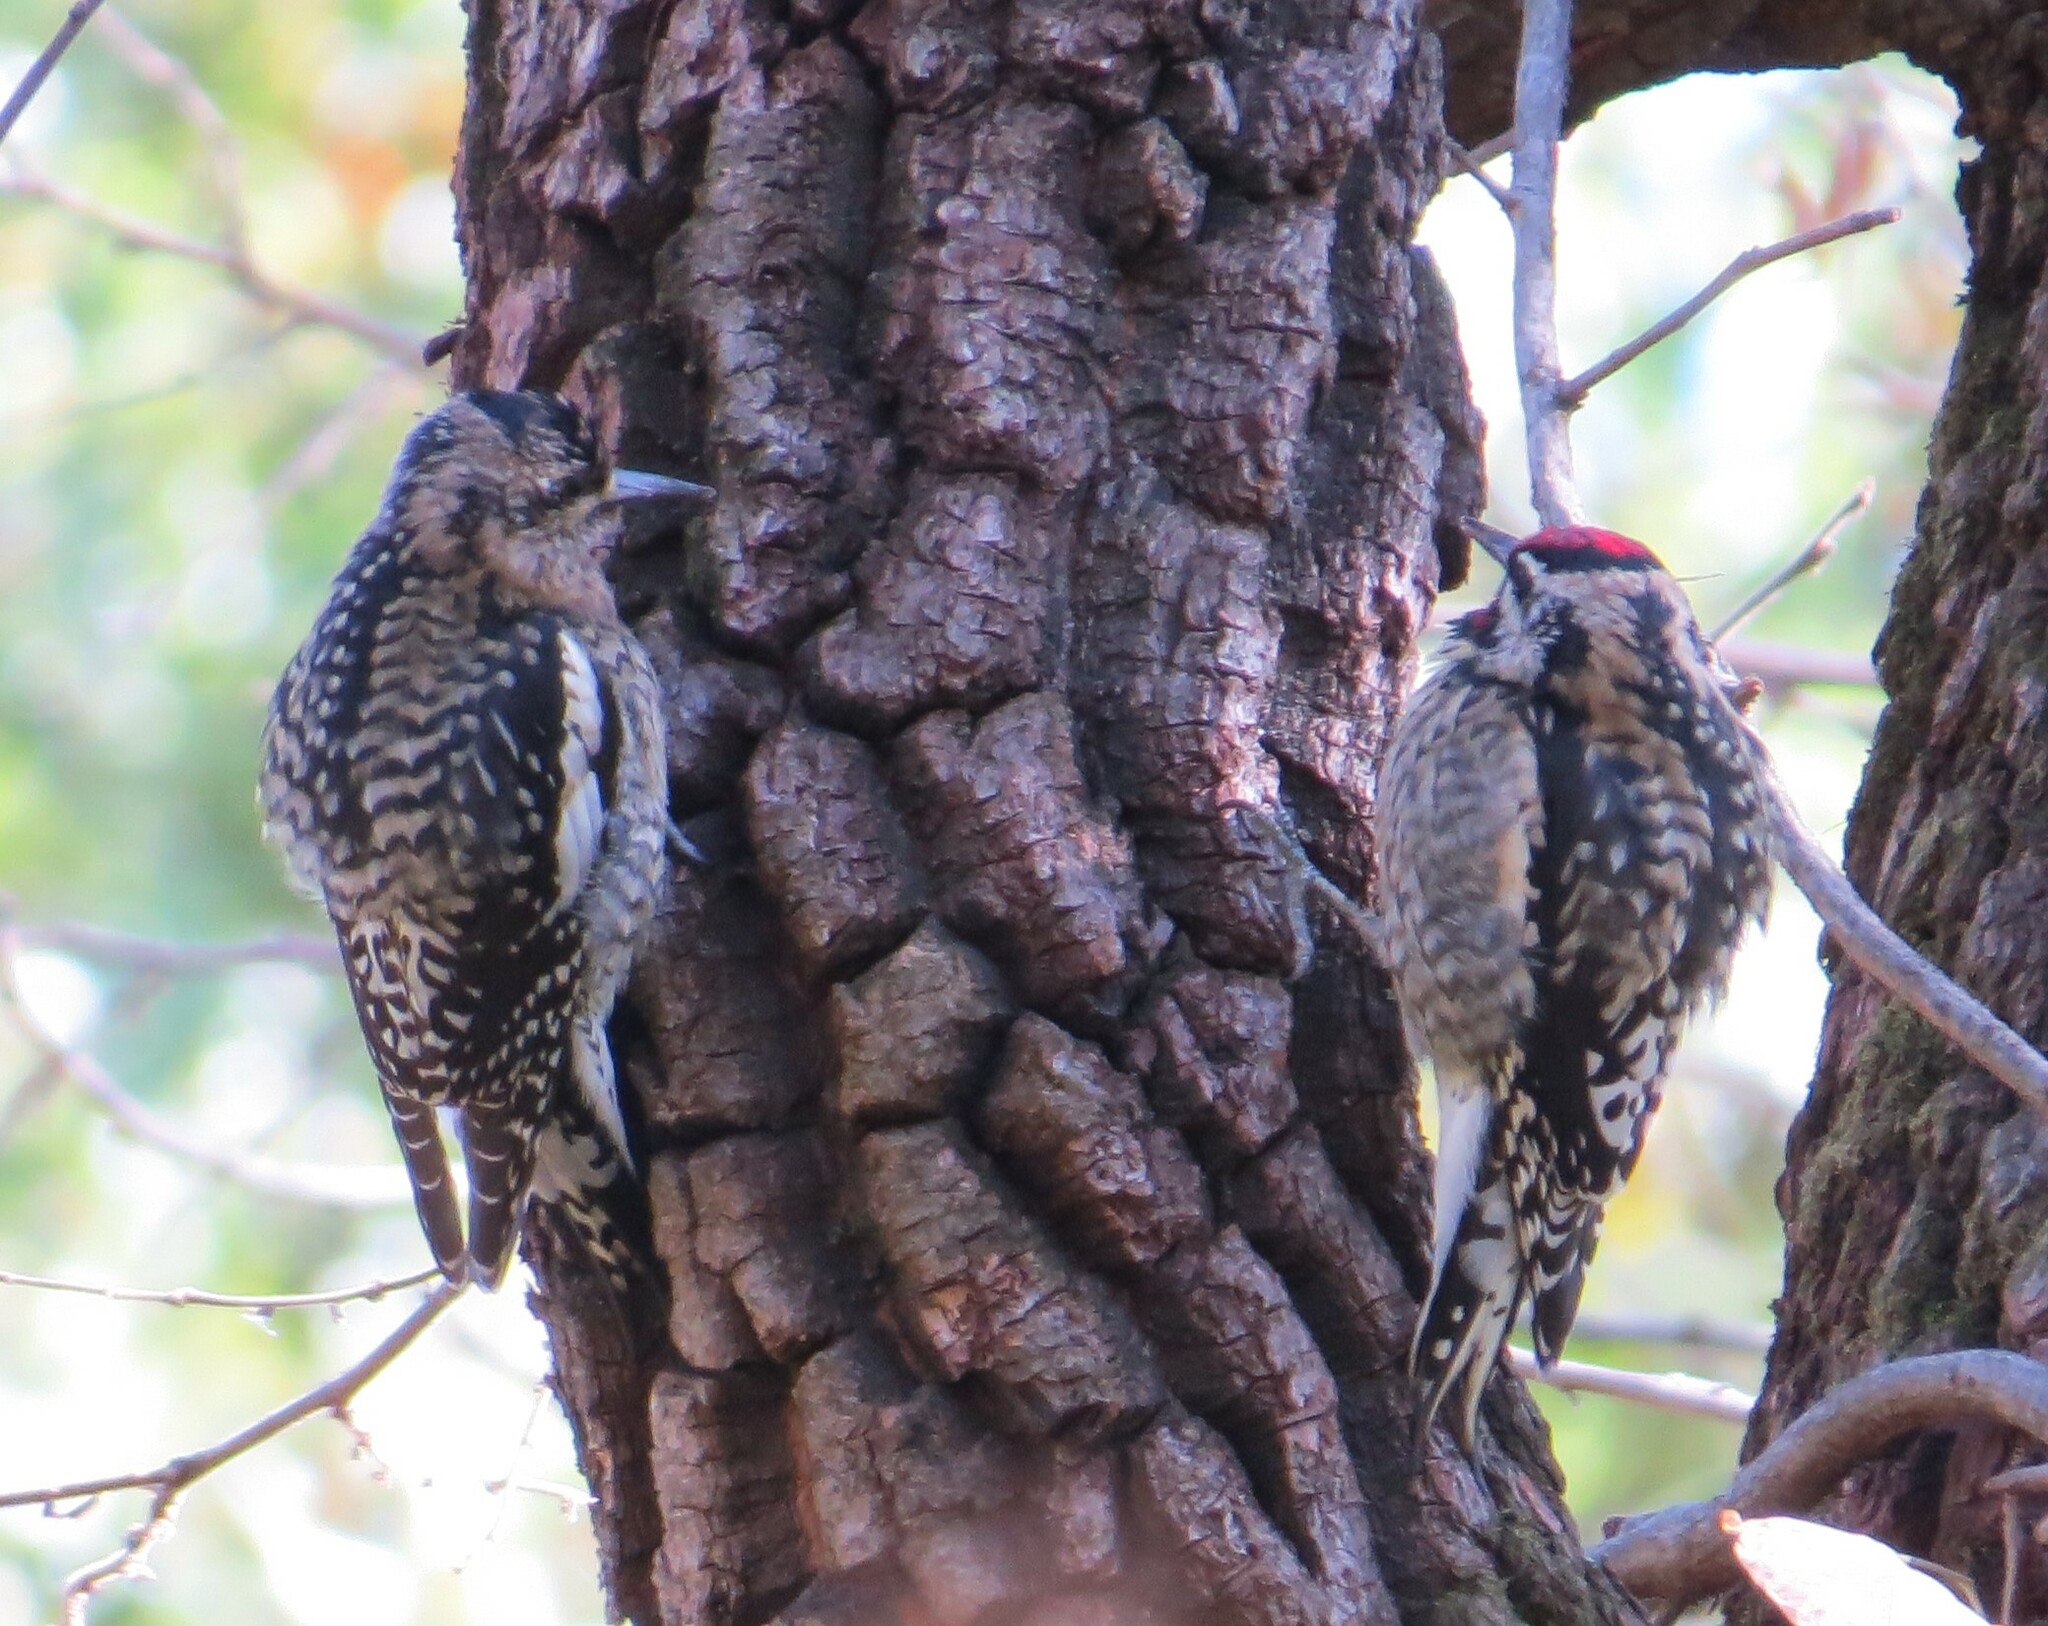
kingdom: Animalia
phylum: Chordata
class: Aves
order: Piciformes
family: Picidae
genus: Sphyrapicus
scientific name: Sphyrapicus varius
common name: Yellow-bellied sapsucker
